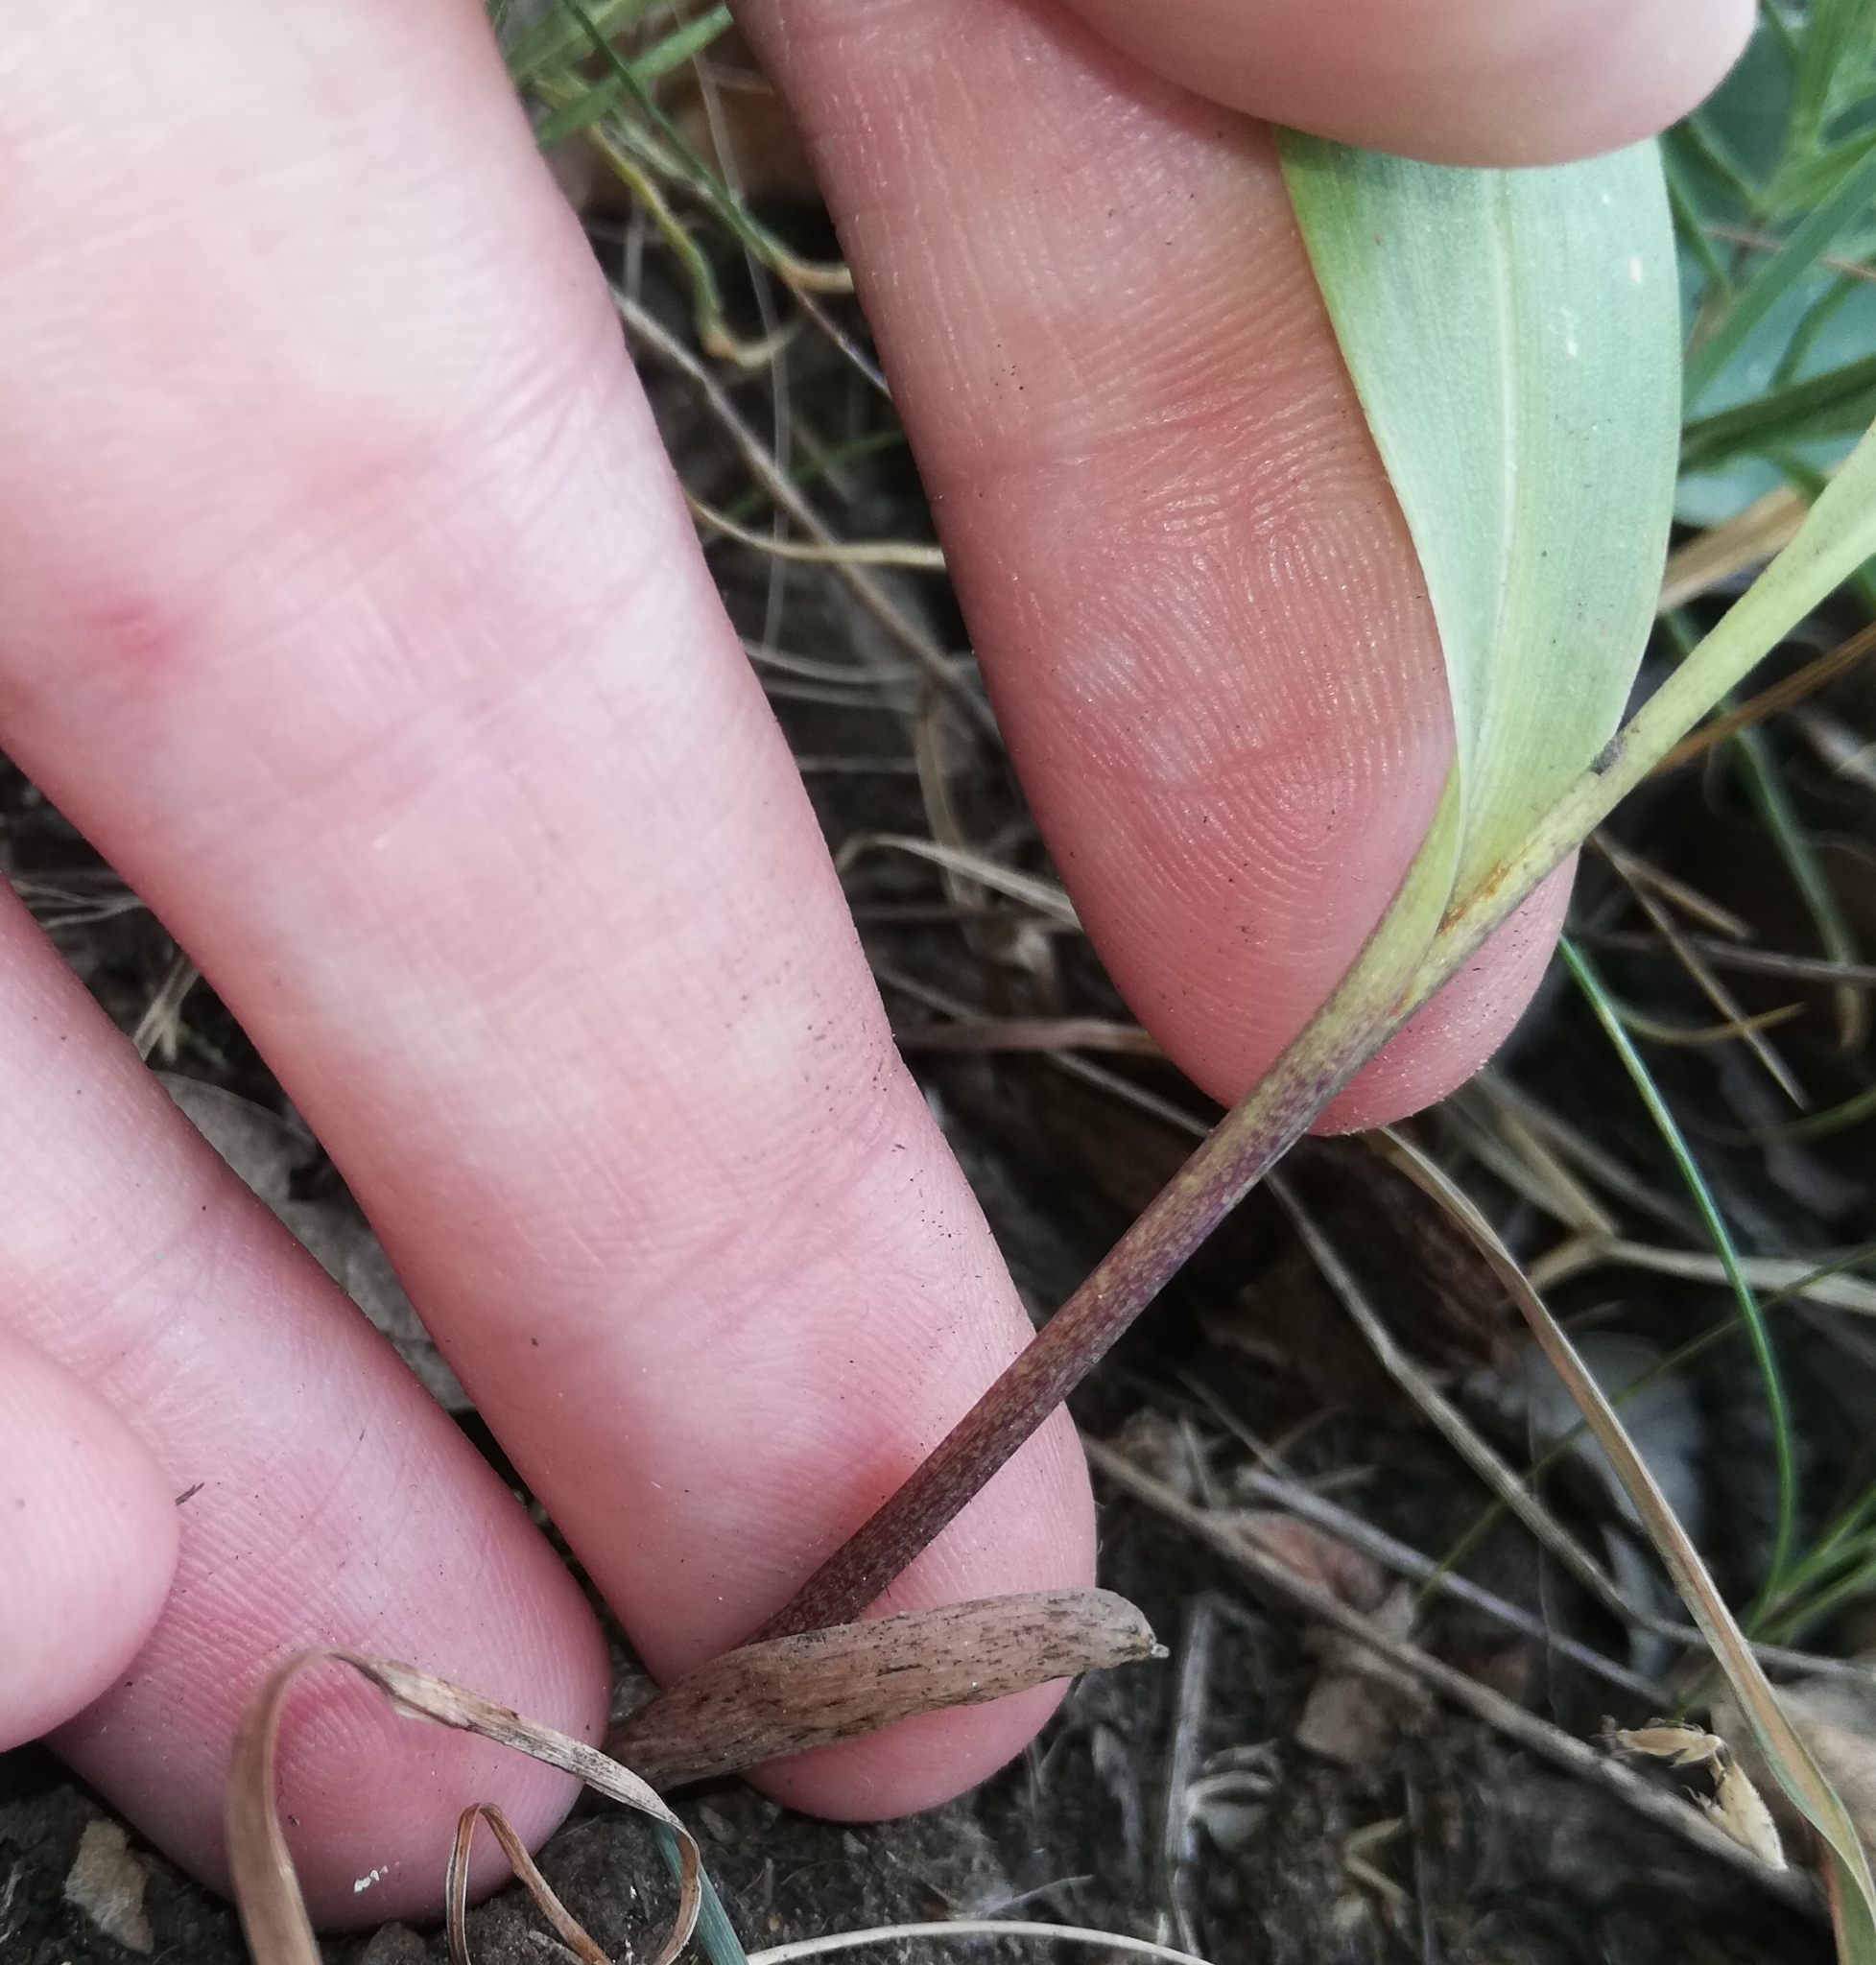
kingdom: Plantae
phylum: Tracheophyta
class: Liliopsida
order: Asparagales
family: Asparagaceae
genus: Convallaria
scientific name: Convallaria majalis
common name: Lily-of-the-valley
